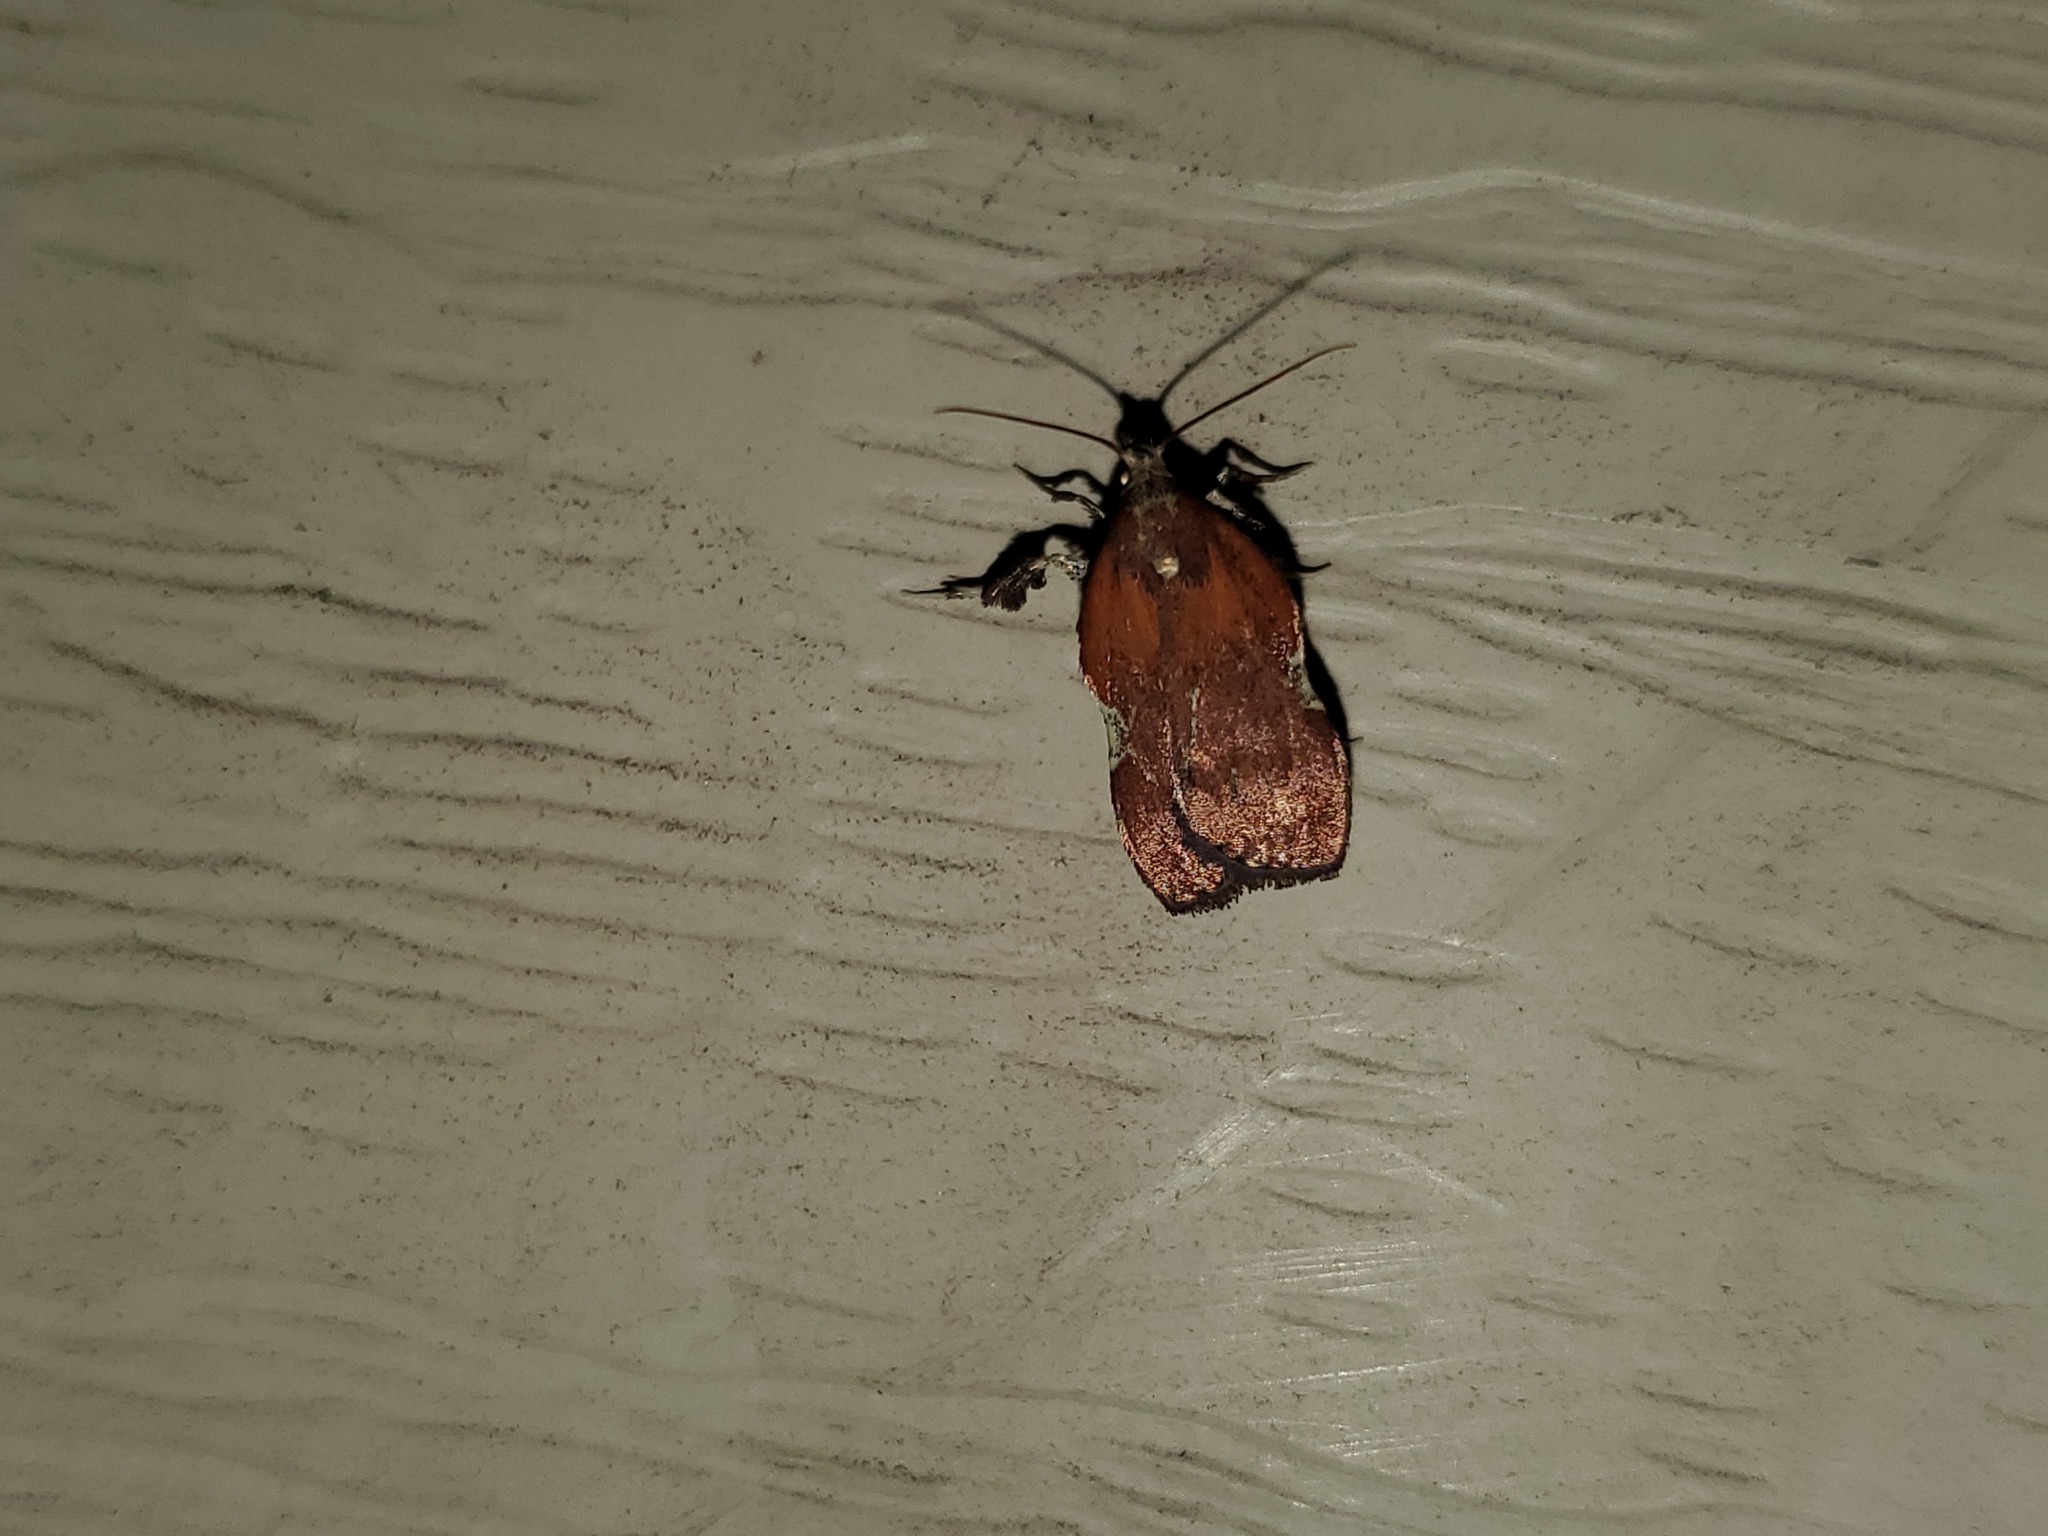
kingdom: Animalia
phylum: Arthropoda
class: Insecta
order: Lepidoptera
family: Pyralidae
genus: Galasa
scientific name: Galasa nigrinodis
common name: Boxwood leaftier moth
